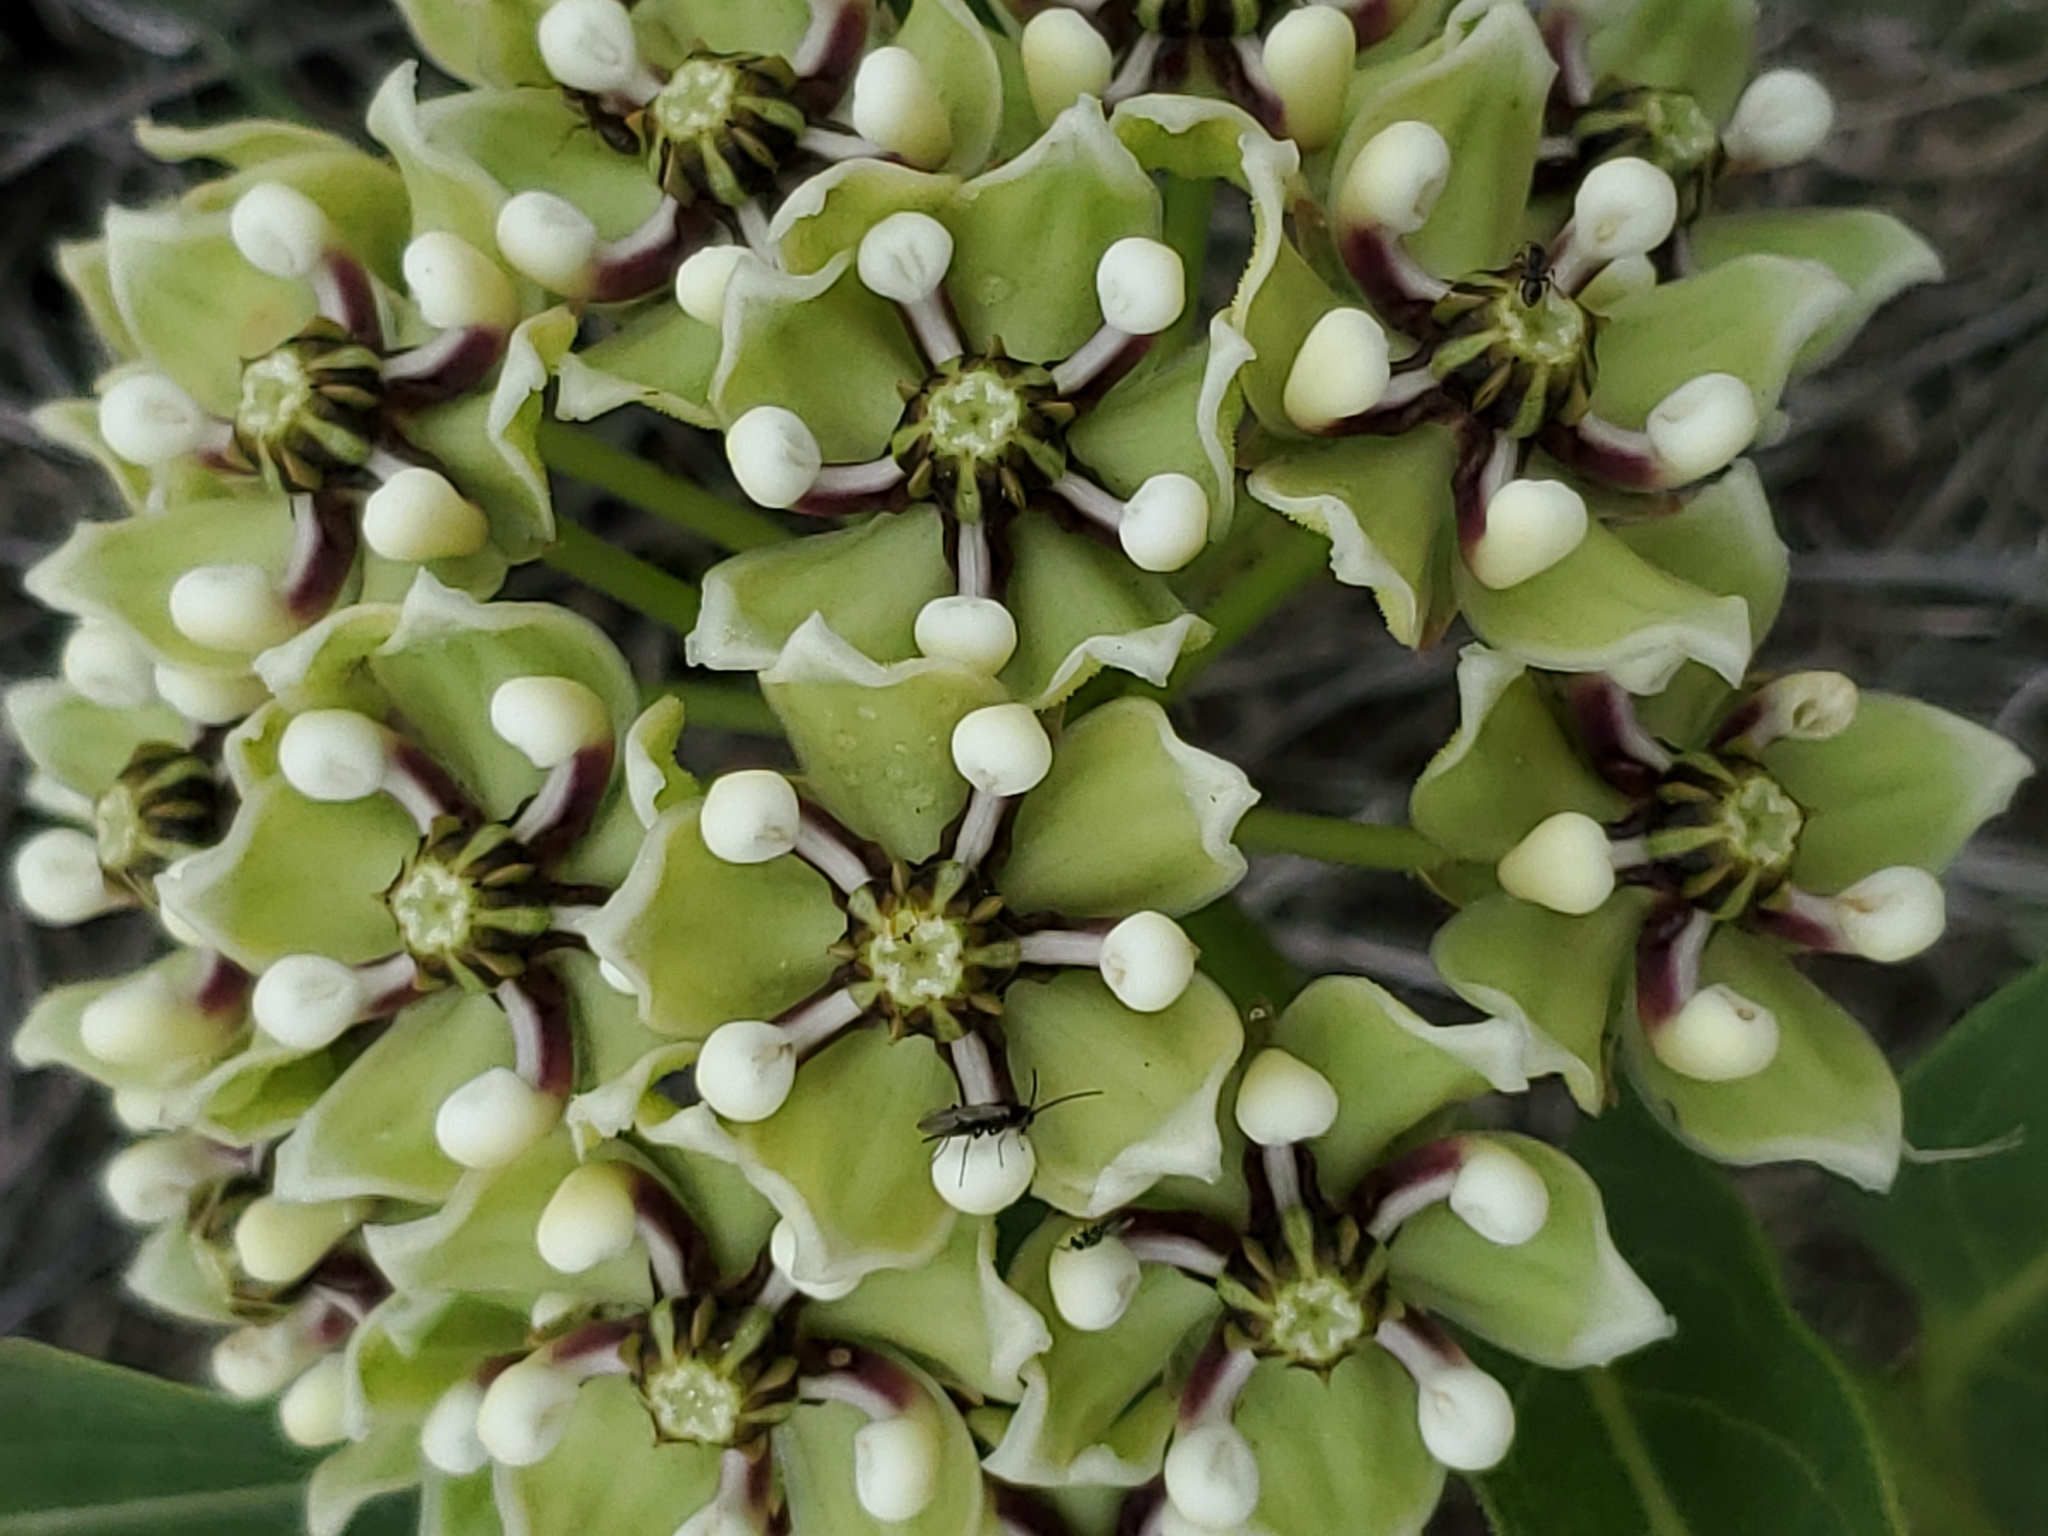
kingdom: Plantae
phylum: Tracheophyta
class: Magnoliopsida
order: Gentianales
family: Apocynaceae
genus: Asclepias
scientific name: Asclepias asperula
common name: Antelope horns
